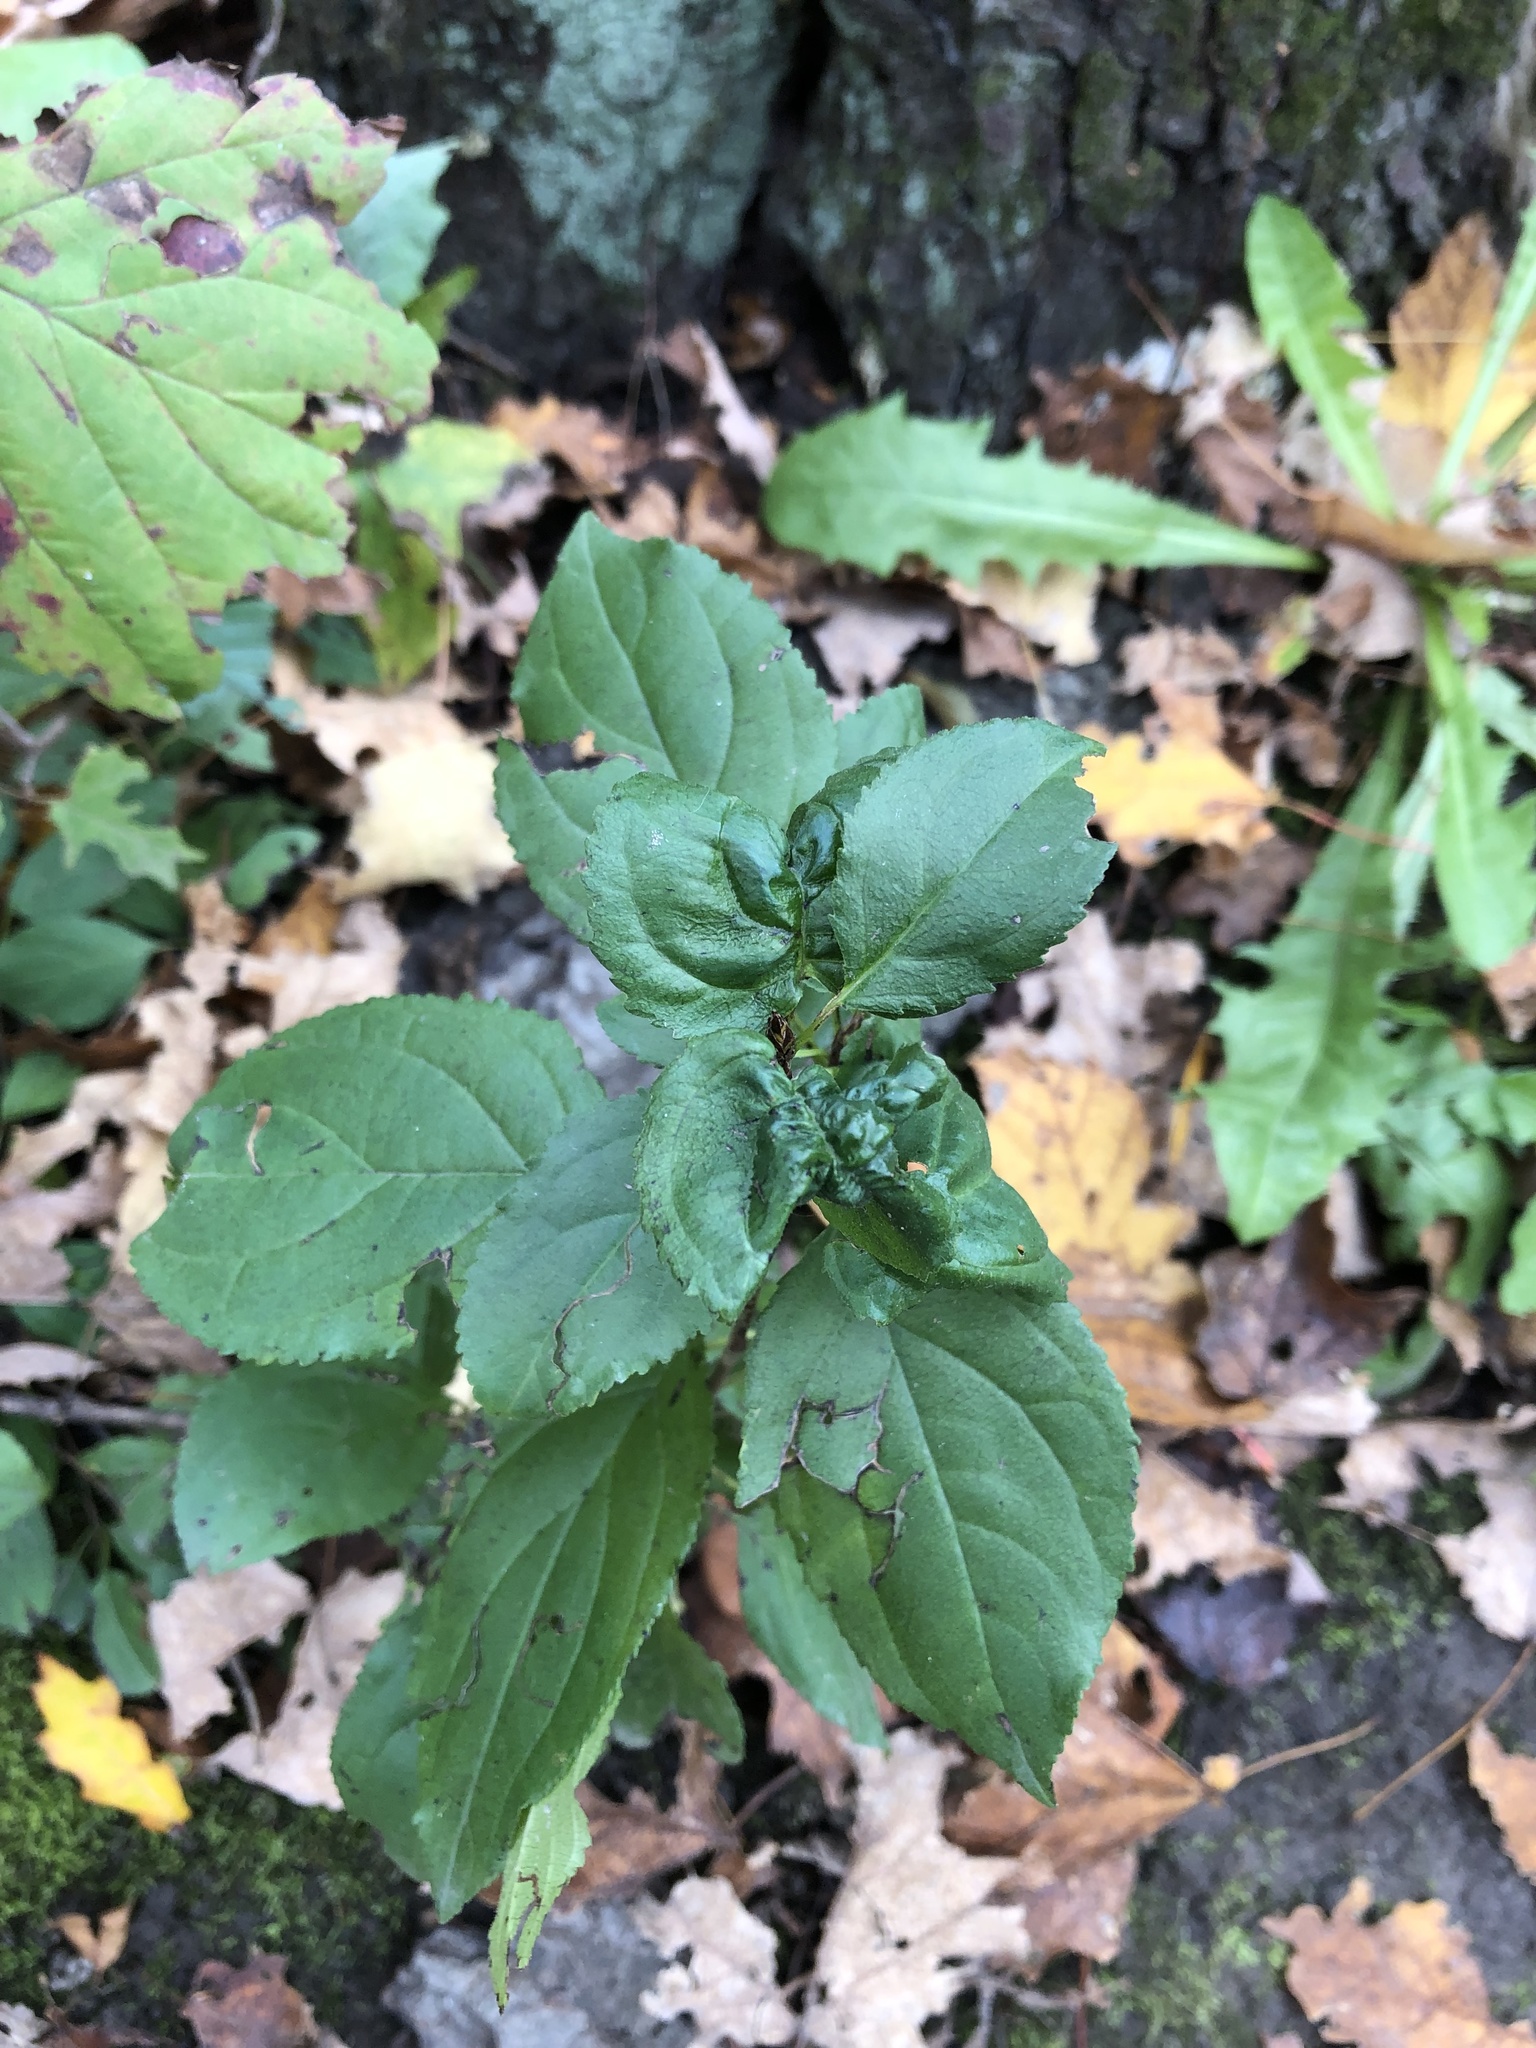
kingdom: Plantae
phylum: Tracheophyta
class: Magnoliopsida
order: Rosales
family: Rhamnaceae
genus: Rhamnus
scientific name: Rhamnus cathartica
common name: Common buckthorn
